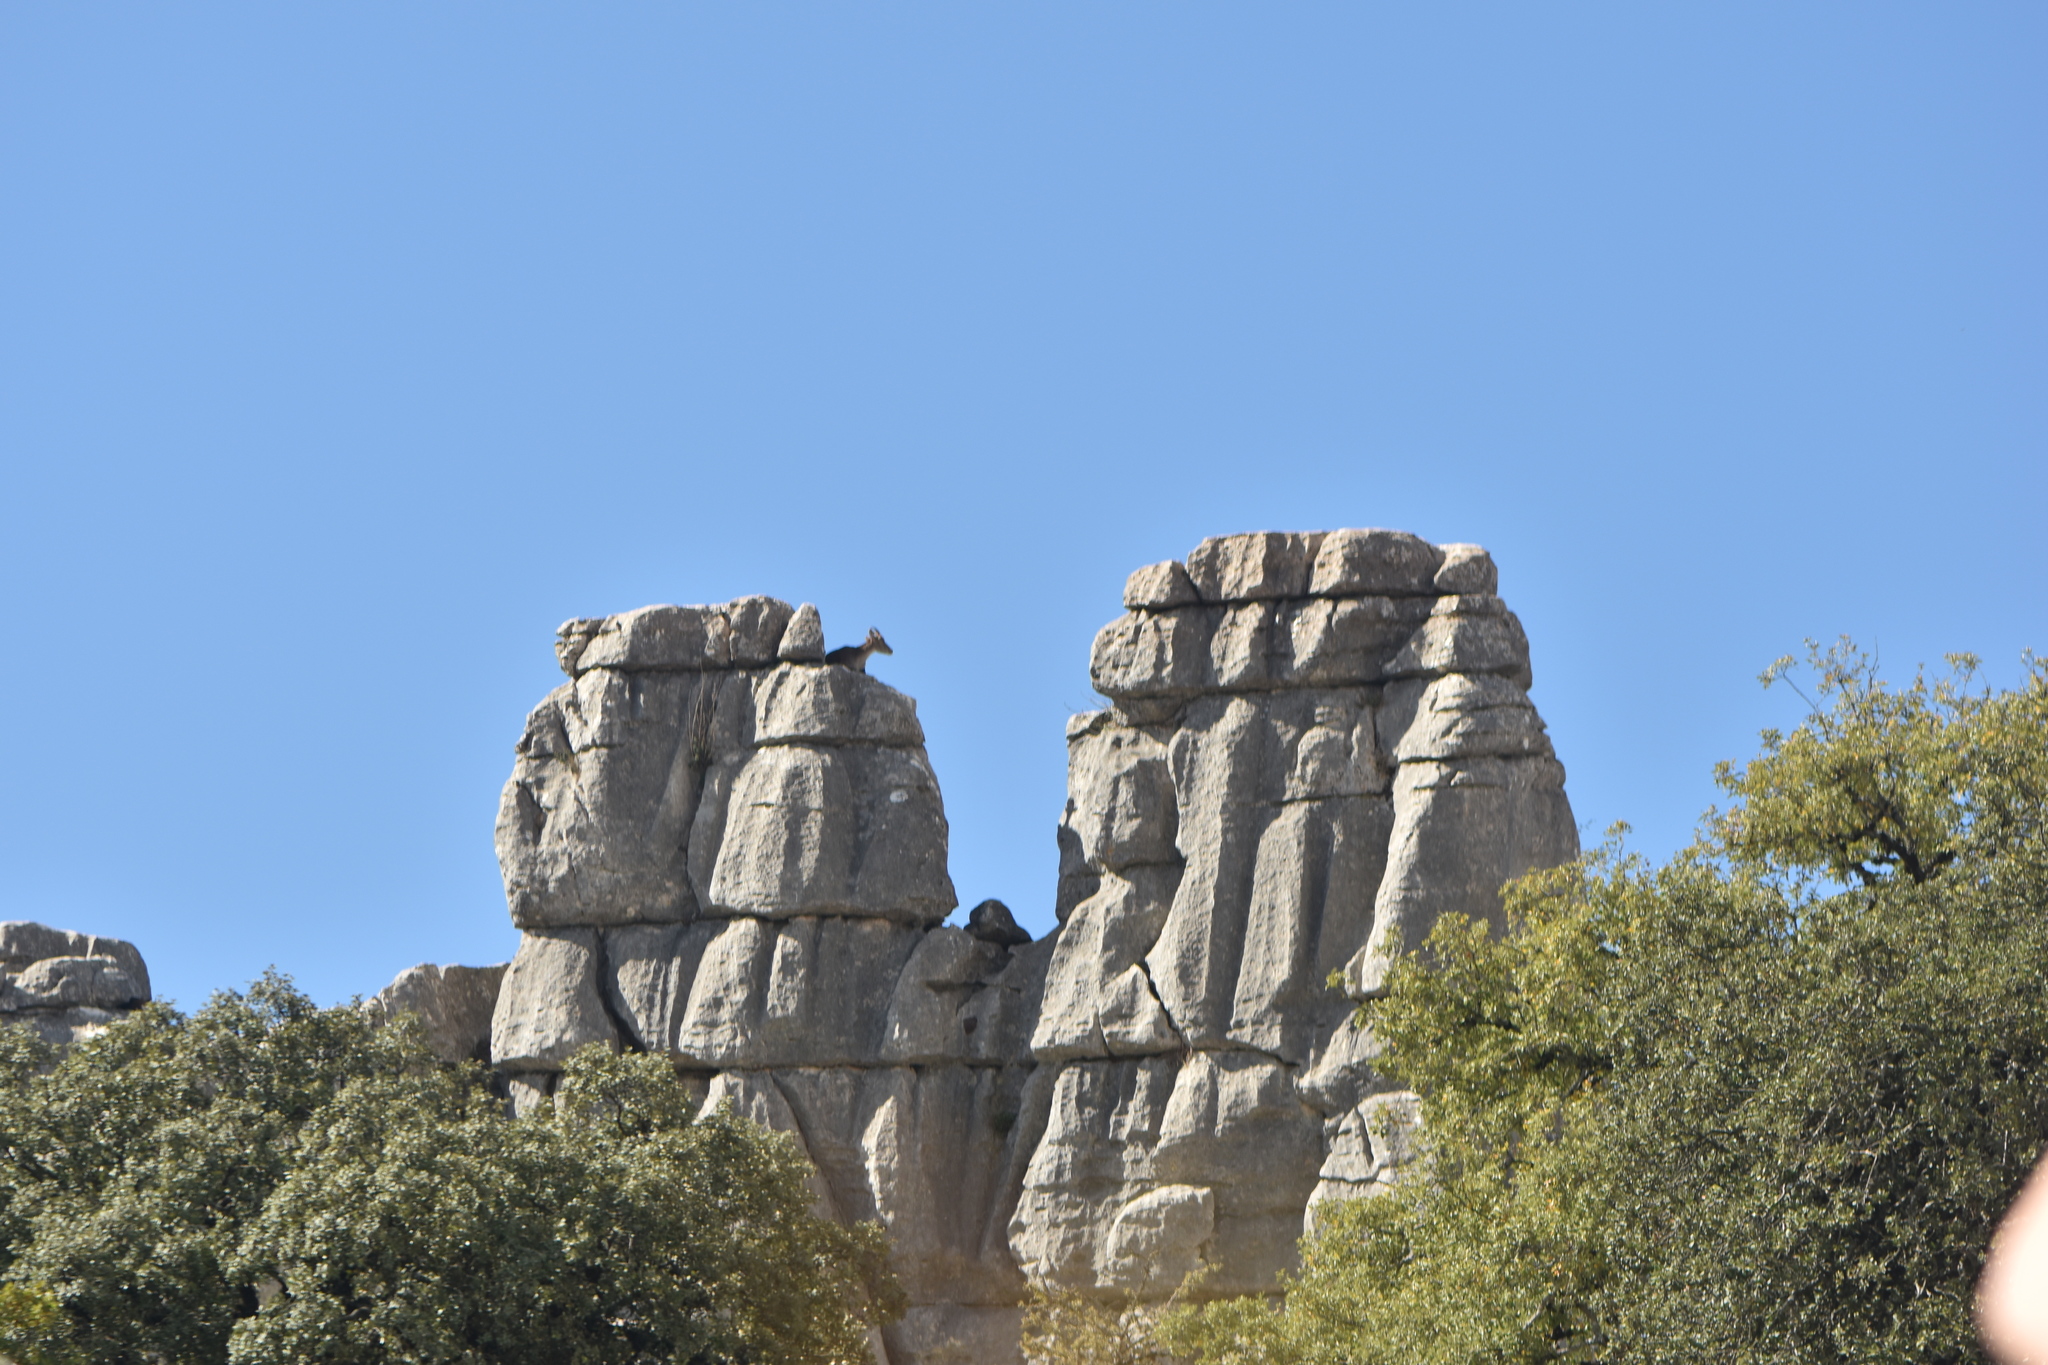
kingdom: Animalia
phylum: Chordata
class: Mammalia
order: Artiodactyla
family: Bovidae
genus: Capra
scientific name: Capra pyrenaica
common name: Spanish ibex
